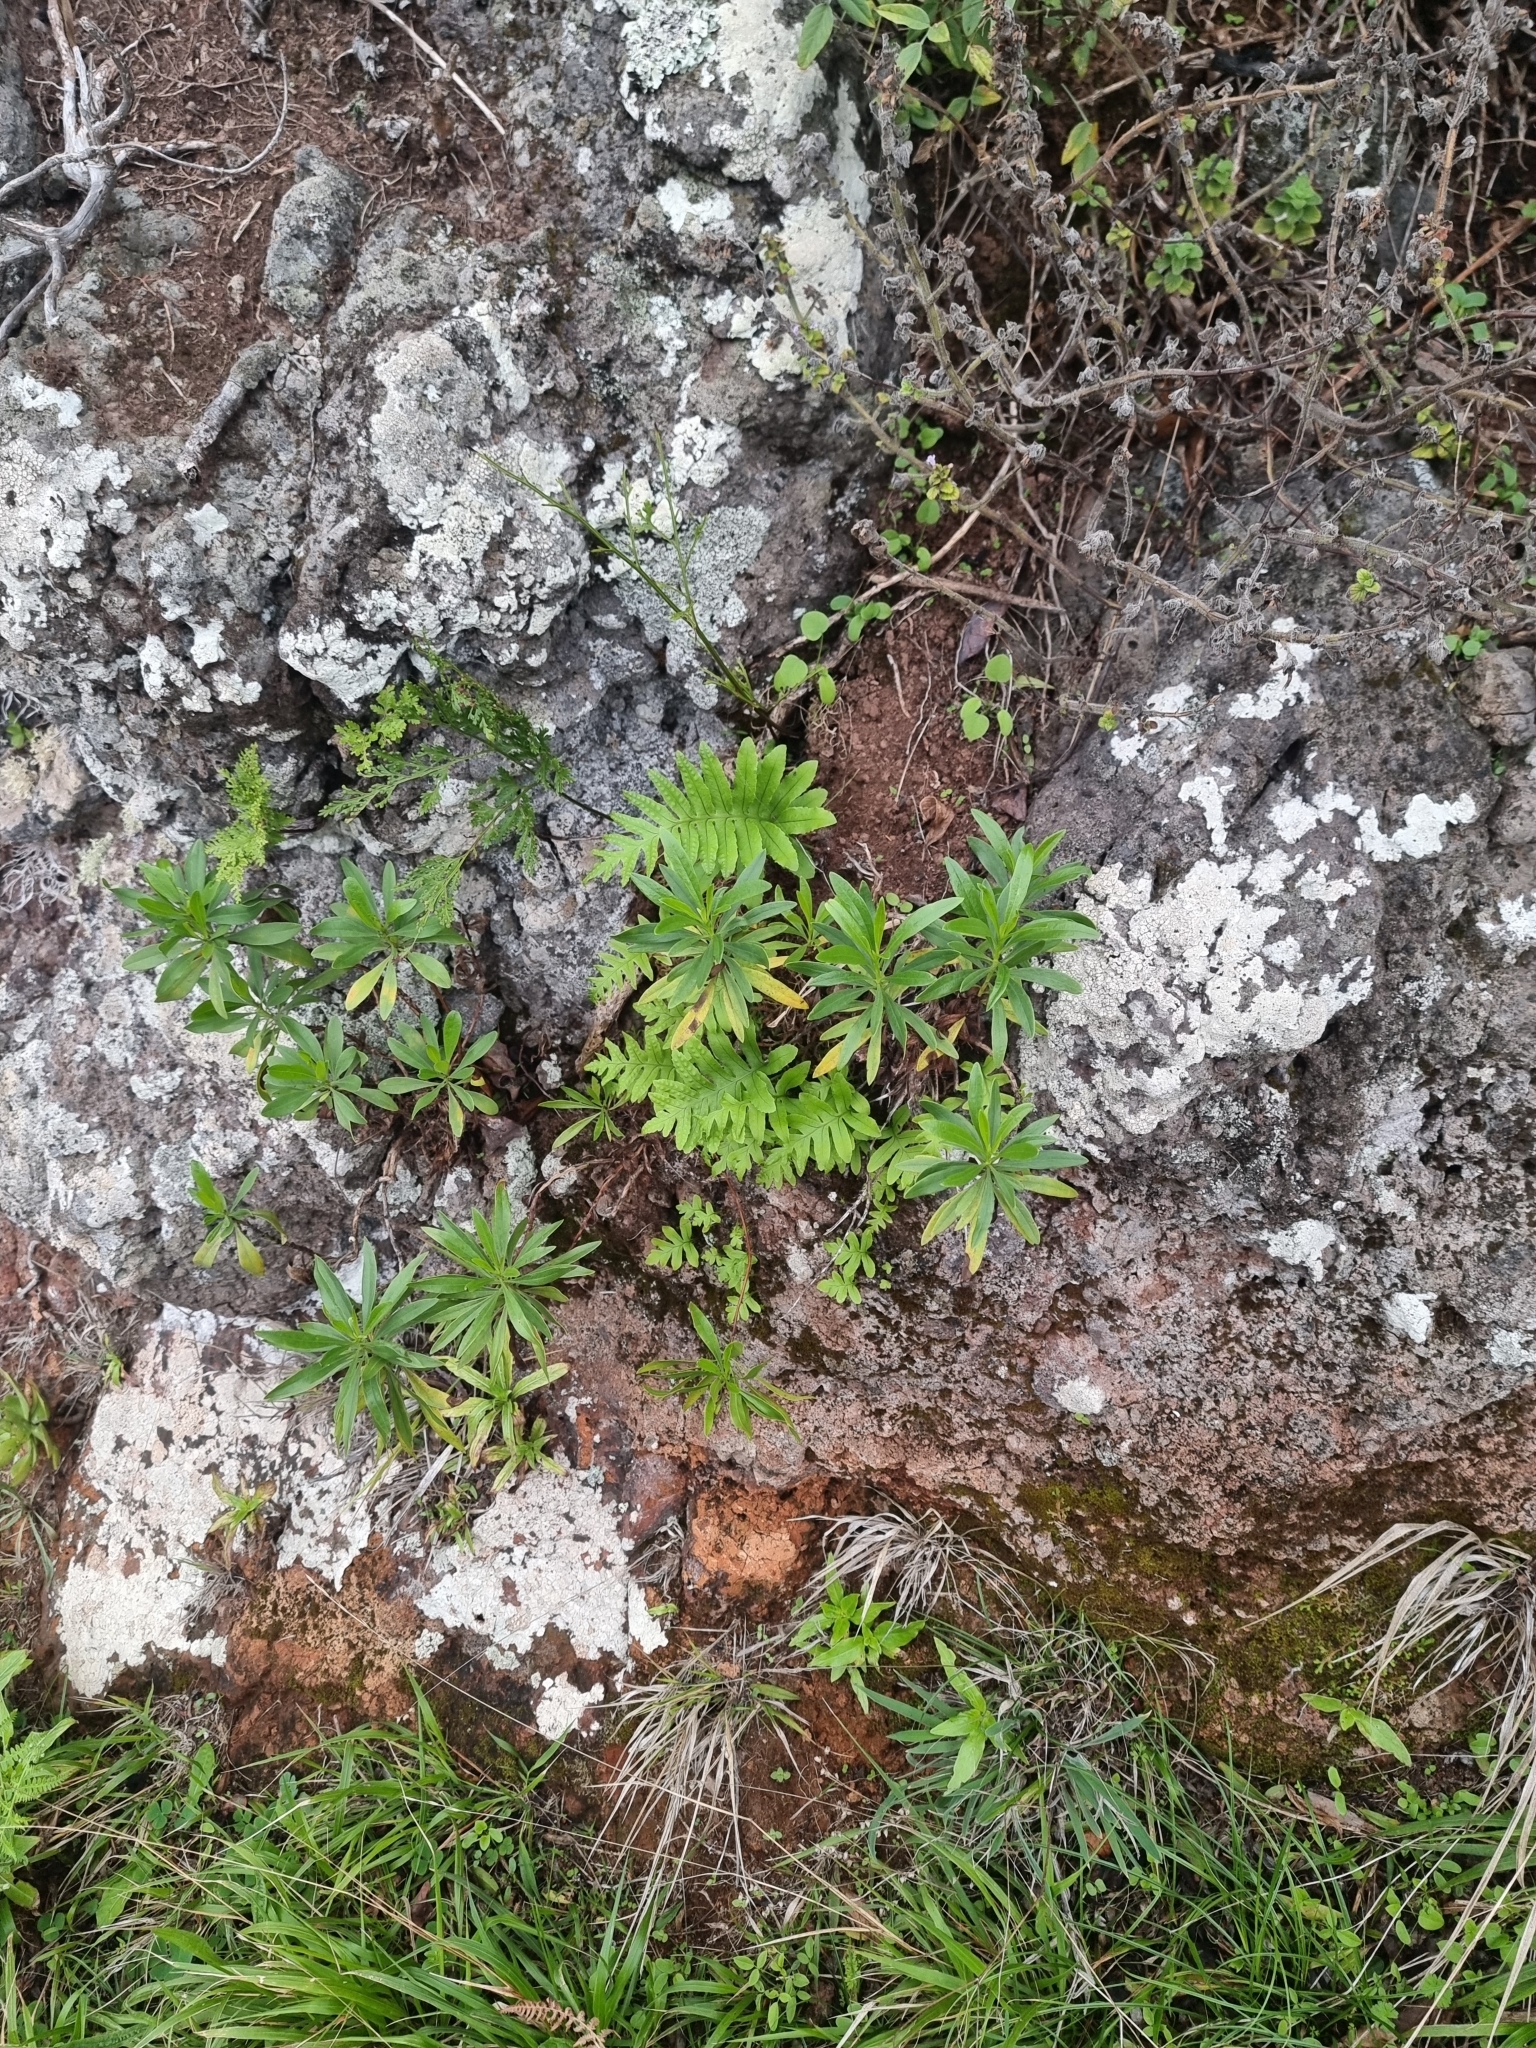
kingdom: Plantae
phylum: Tracheophyta
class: Polypodiopsida
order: Polypodiales
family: Polypodiaceae
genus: Polypodium
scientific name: Polypodium macaronesicum
